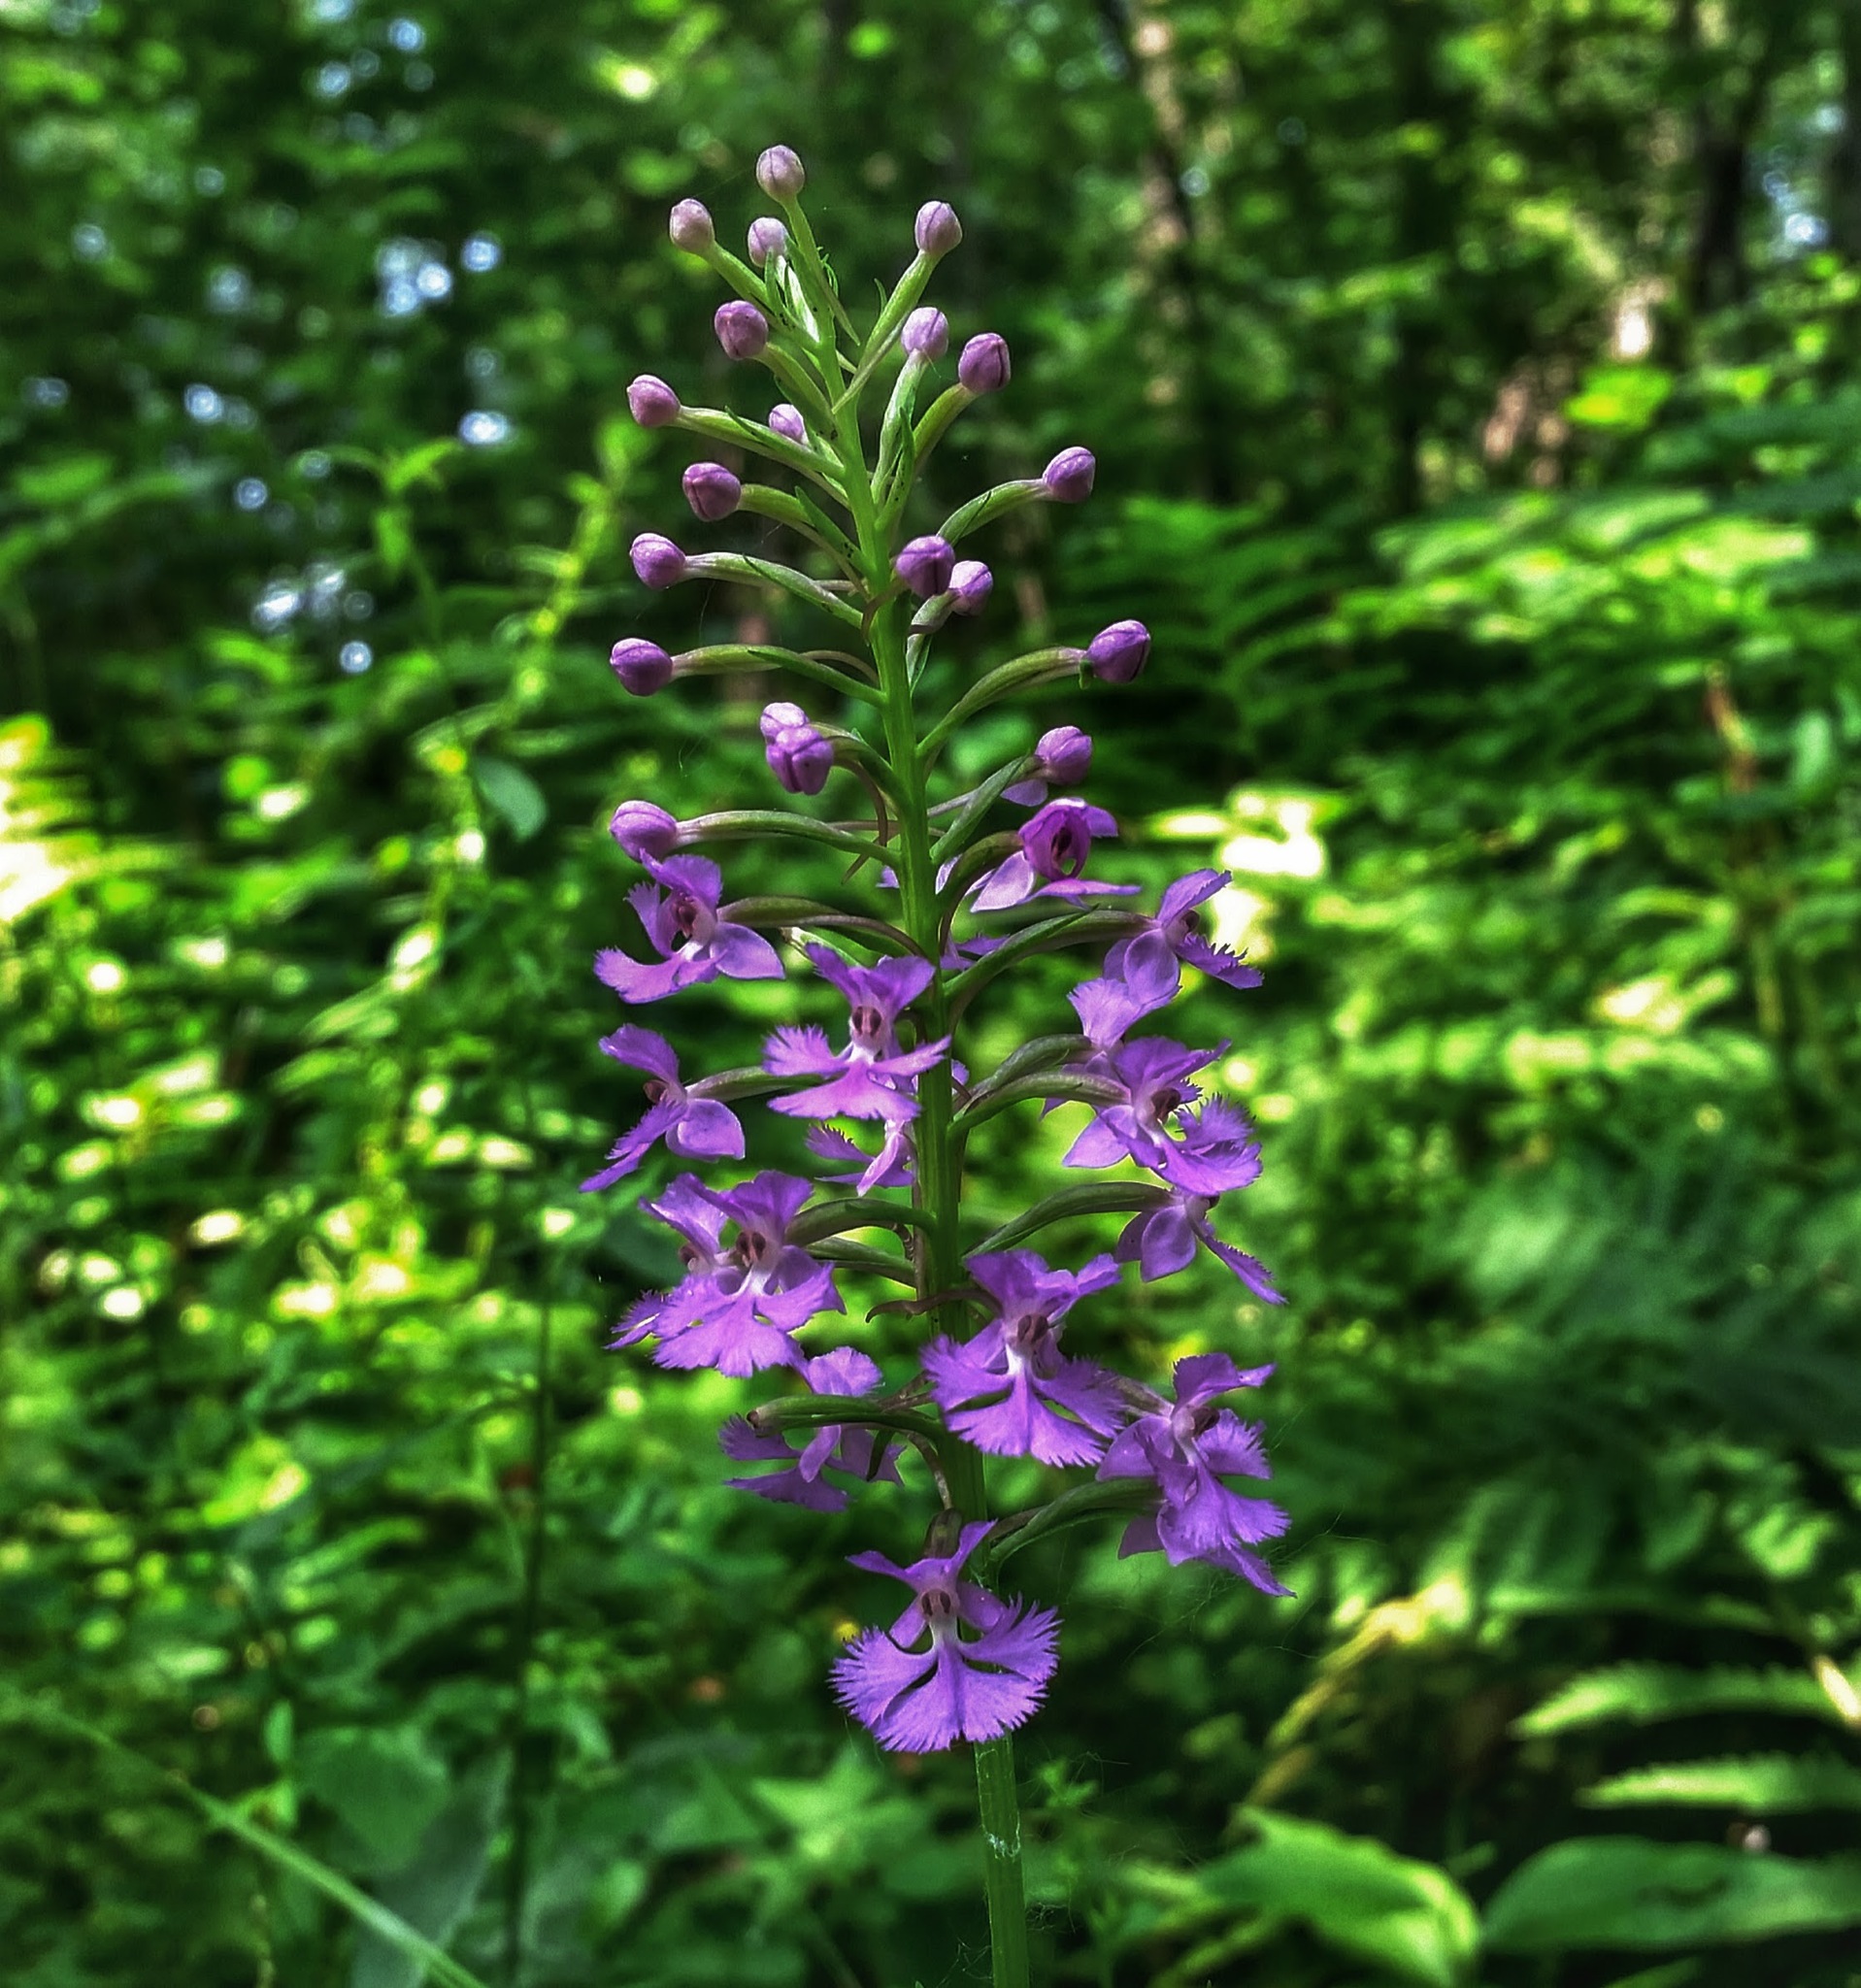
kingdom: Plantae
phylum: Tracheophyta
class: Liliopsida
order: Asparagales
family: Orchidaceae
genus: Platanthera
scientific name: Platanthera psycodes
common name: Lesser purple fringed orchid
